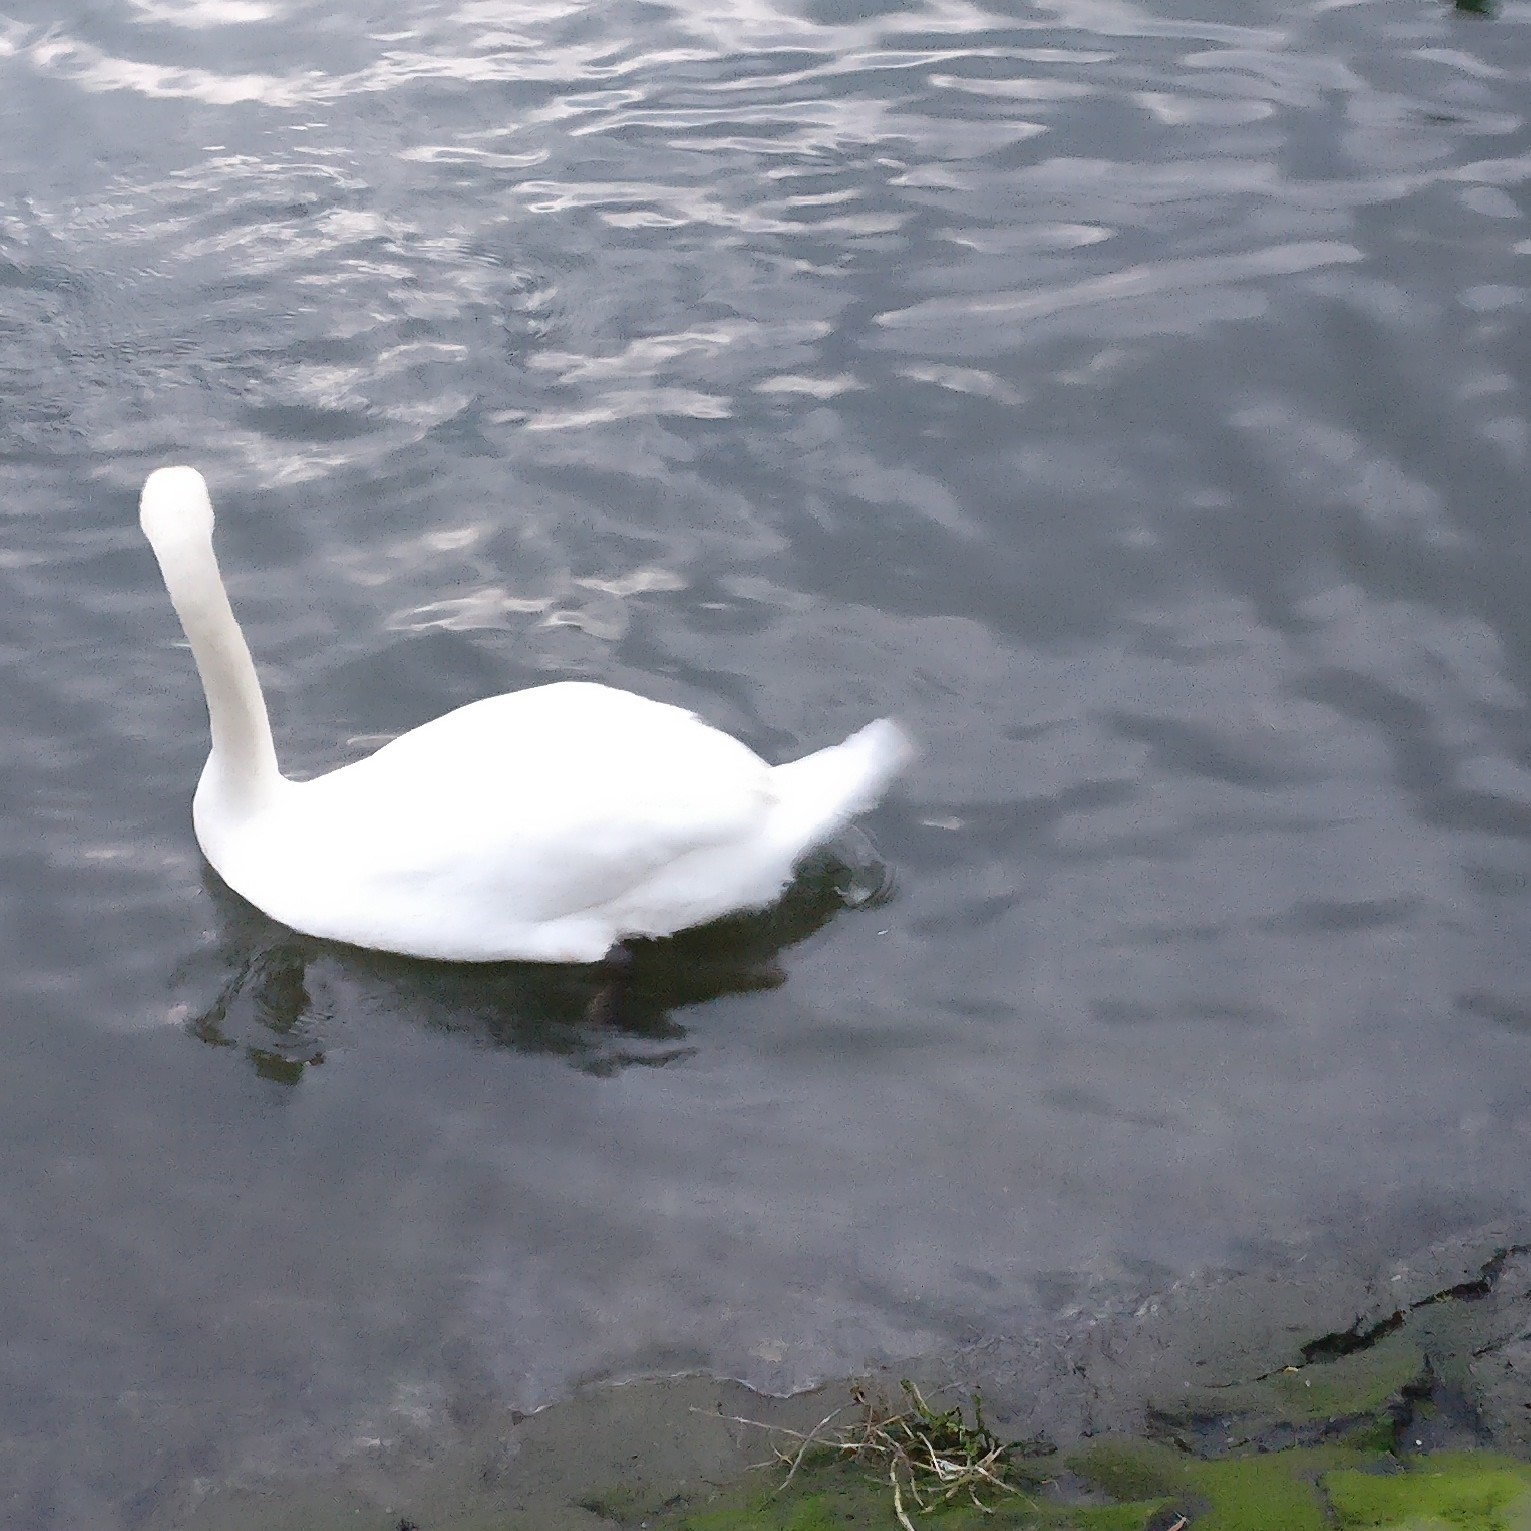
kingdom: Animalia
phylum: Chordata
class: Aves
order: Anseriformes
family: Anatidae
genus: Cygnus
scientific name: Cygnus olor
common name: Mute swan
